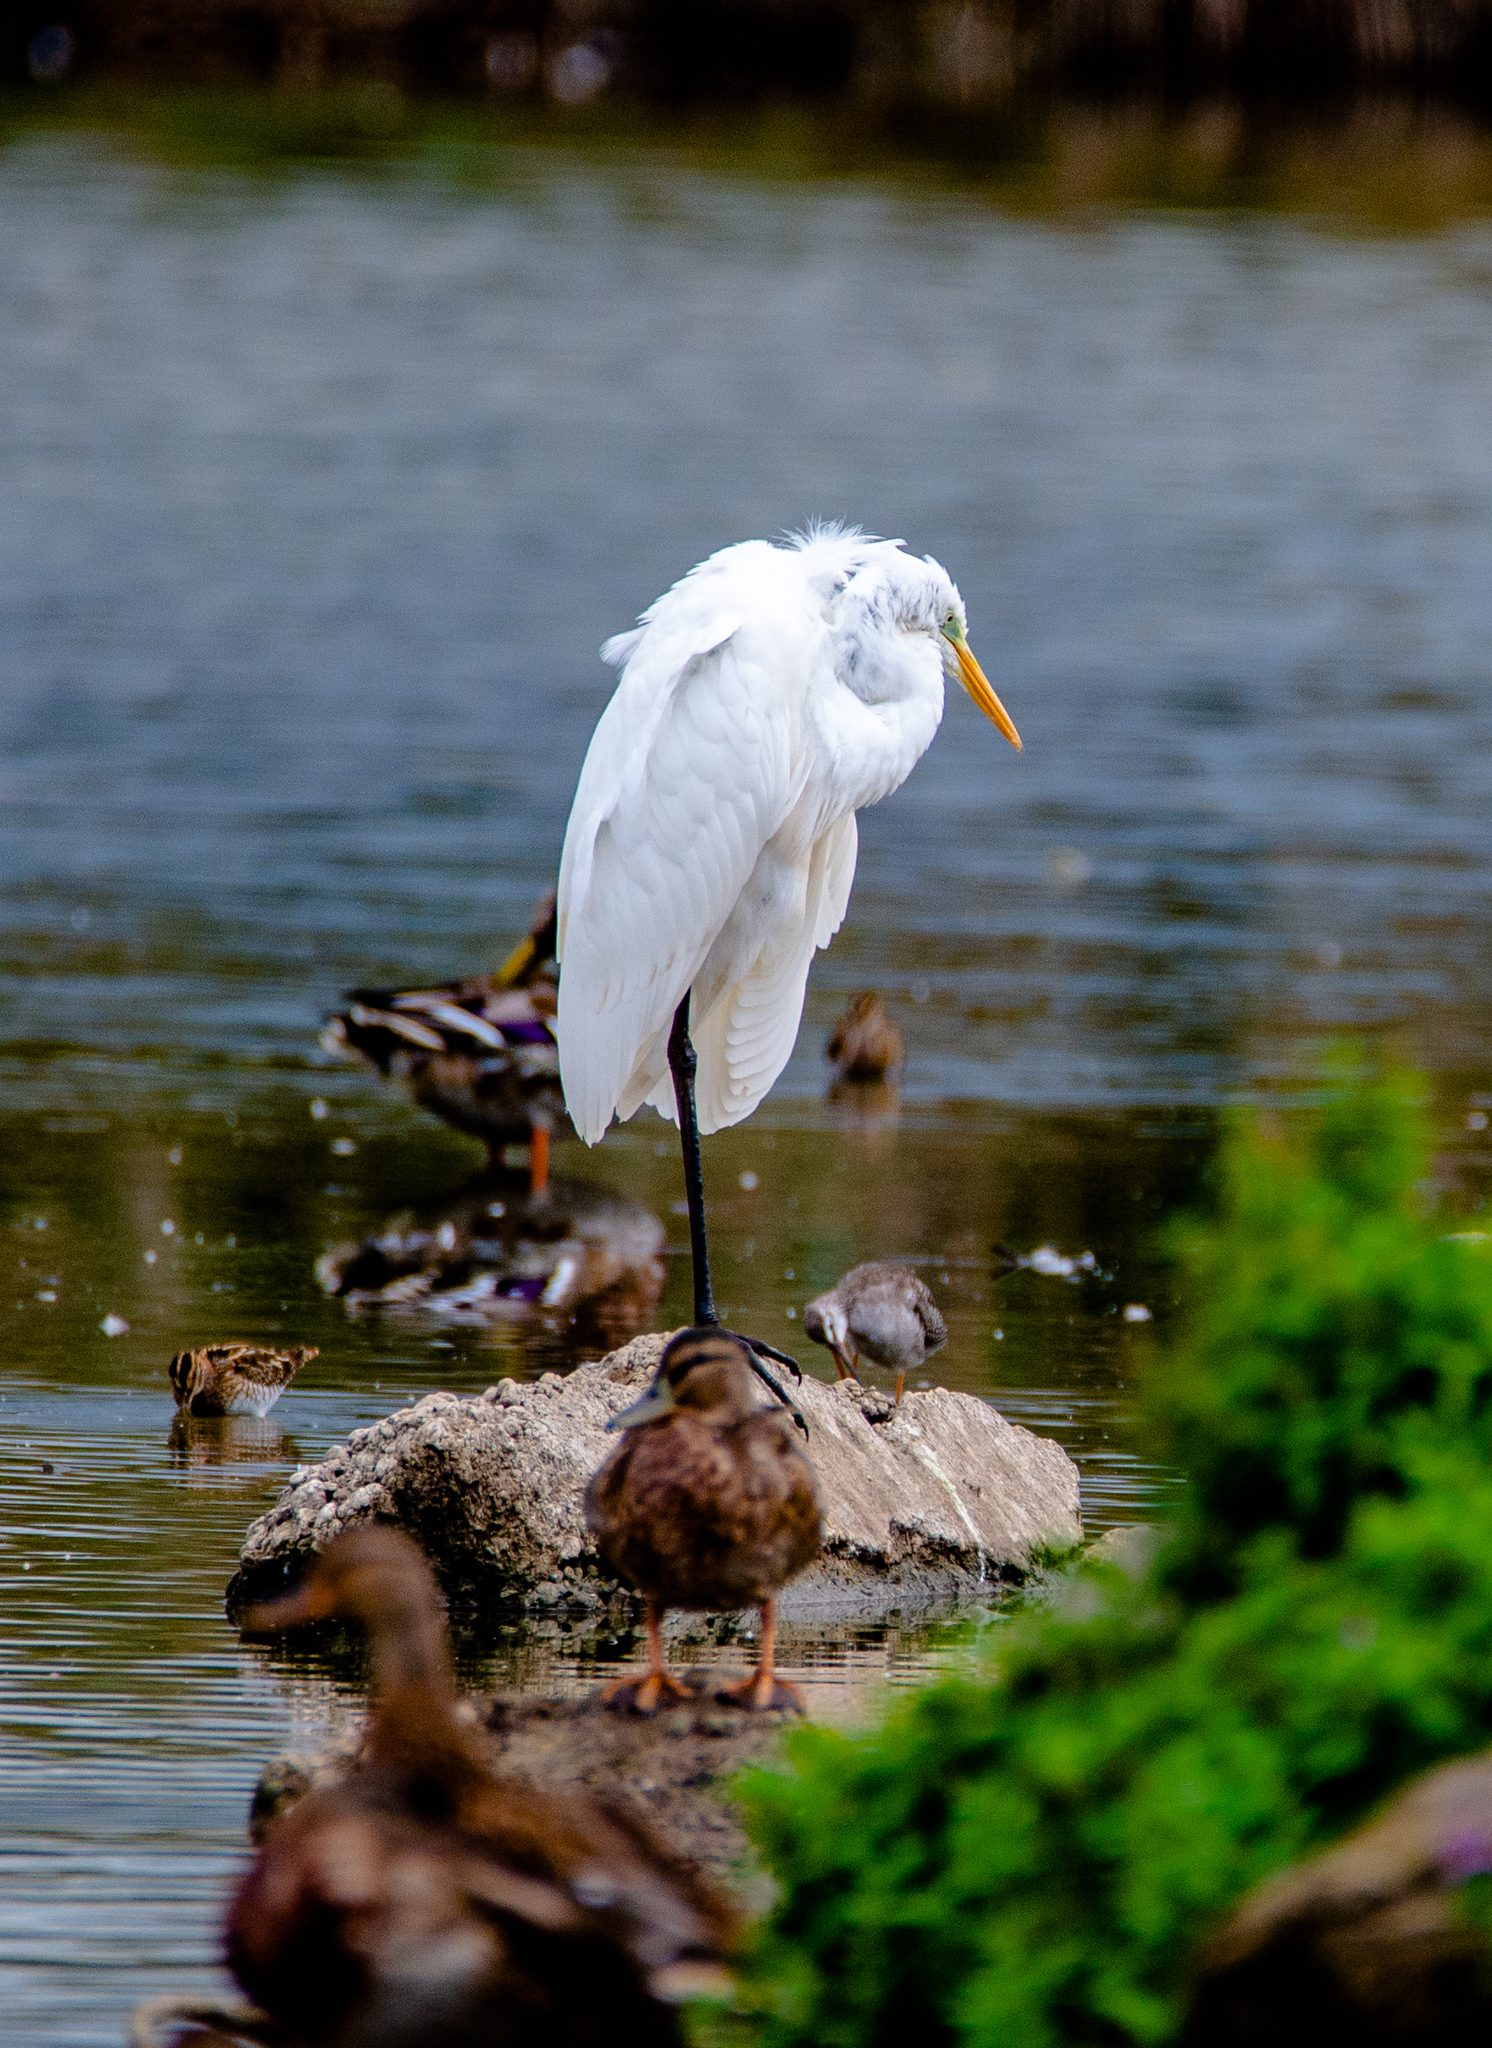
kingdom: Animalia
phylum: Chordata
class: Aves
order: Charadriiformes
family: Scolopacidae
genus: Tringa
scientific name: Tringa erythropus
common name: Spotted redshank
